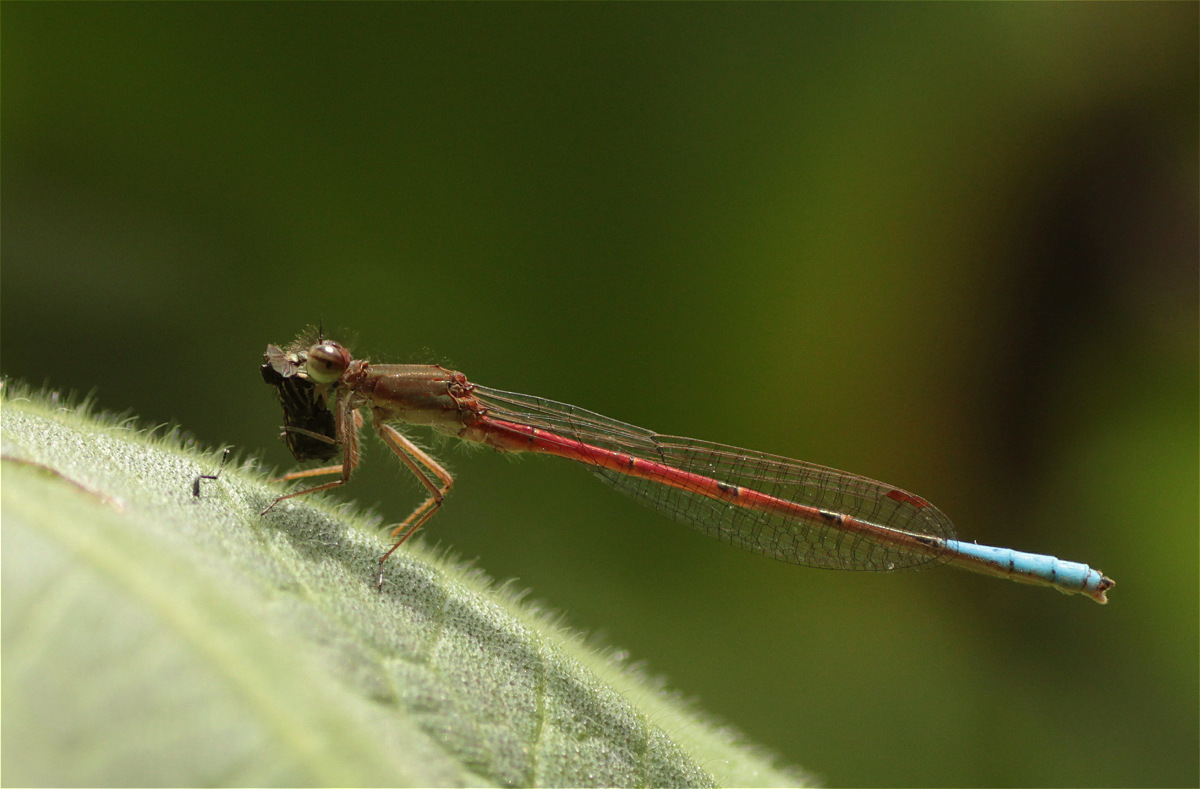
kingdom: Animalia
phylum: Arthropoda
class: Insecta
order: Odonata
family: Coenagrionidae
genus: Oxyallagma
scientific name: Oxyallagma dissidens
